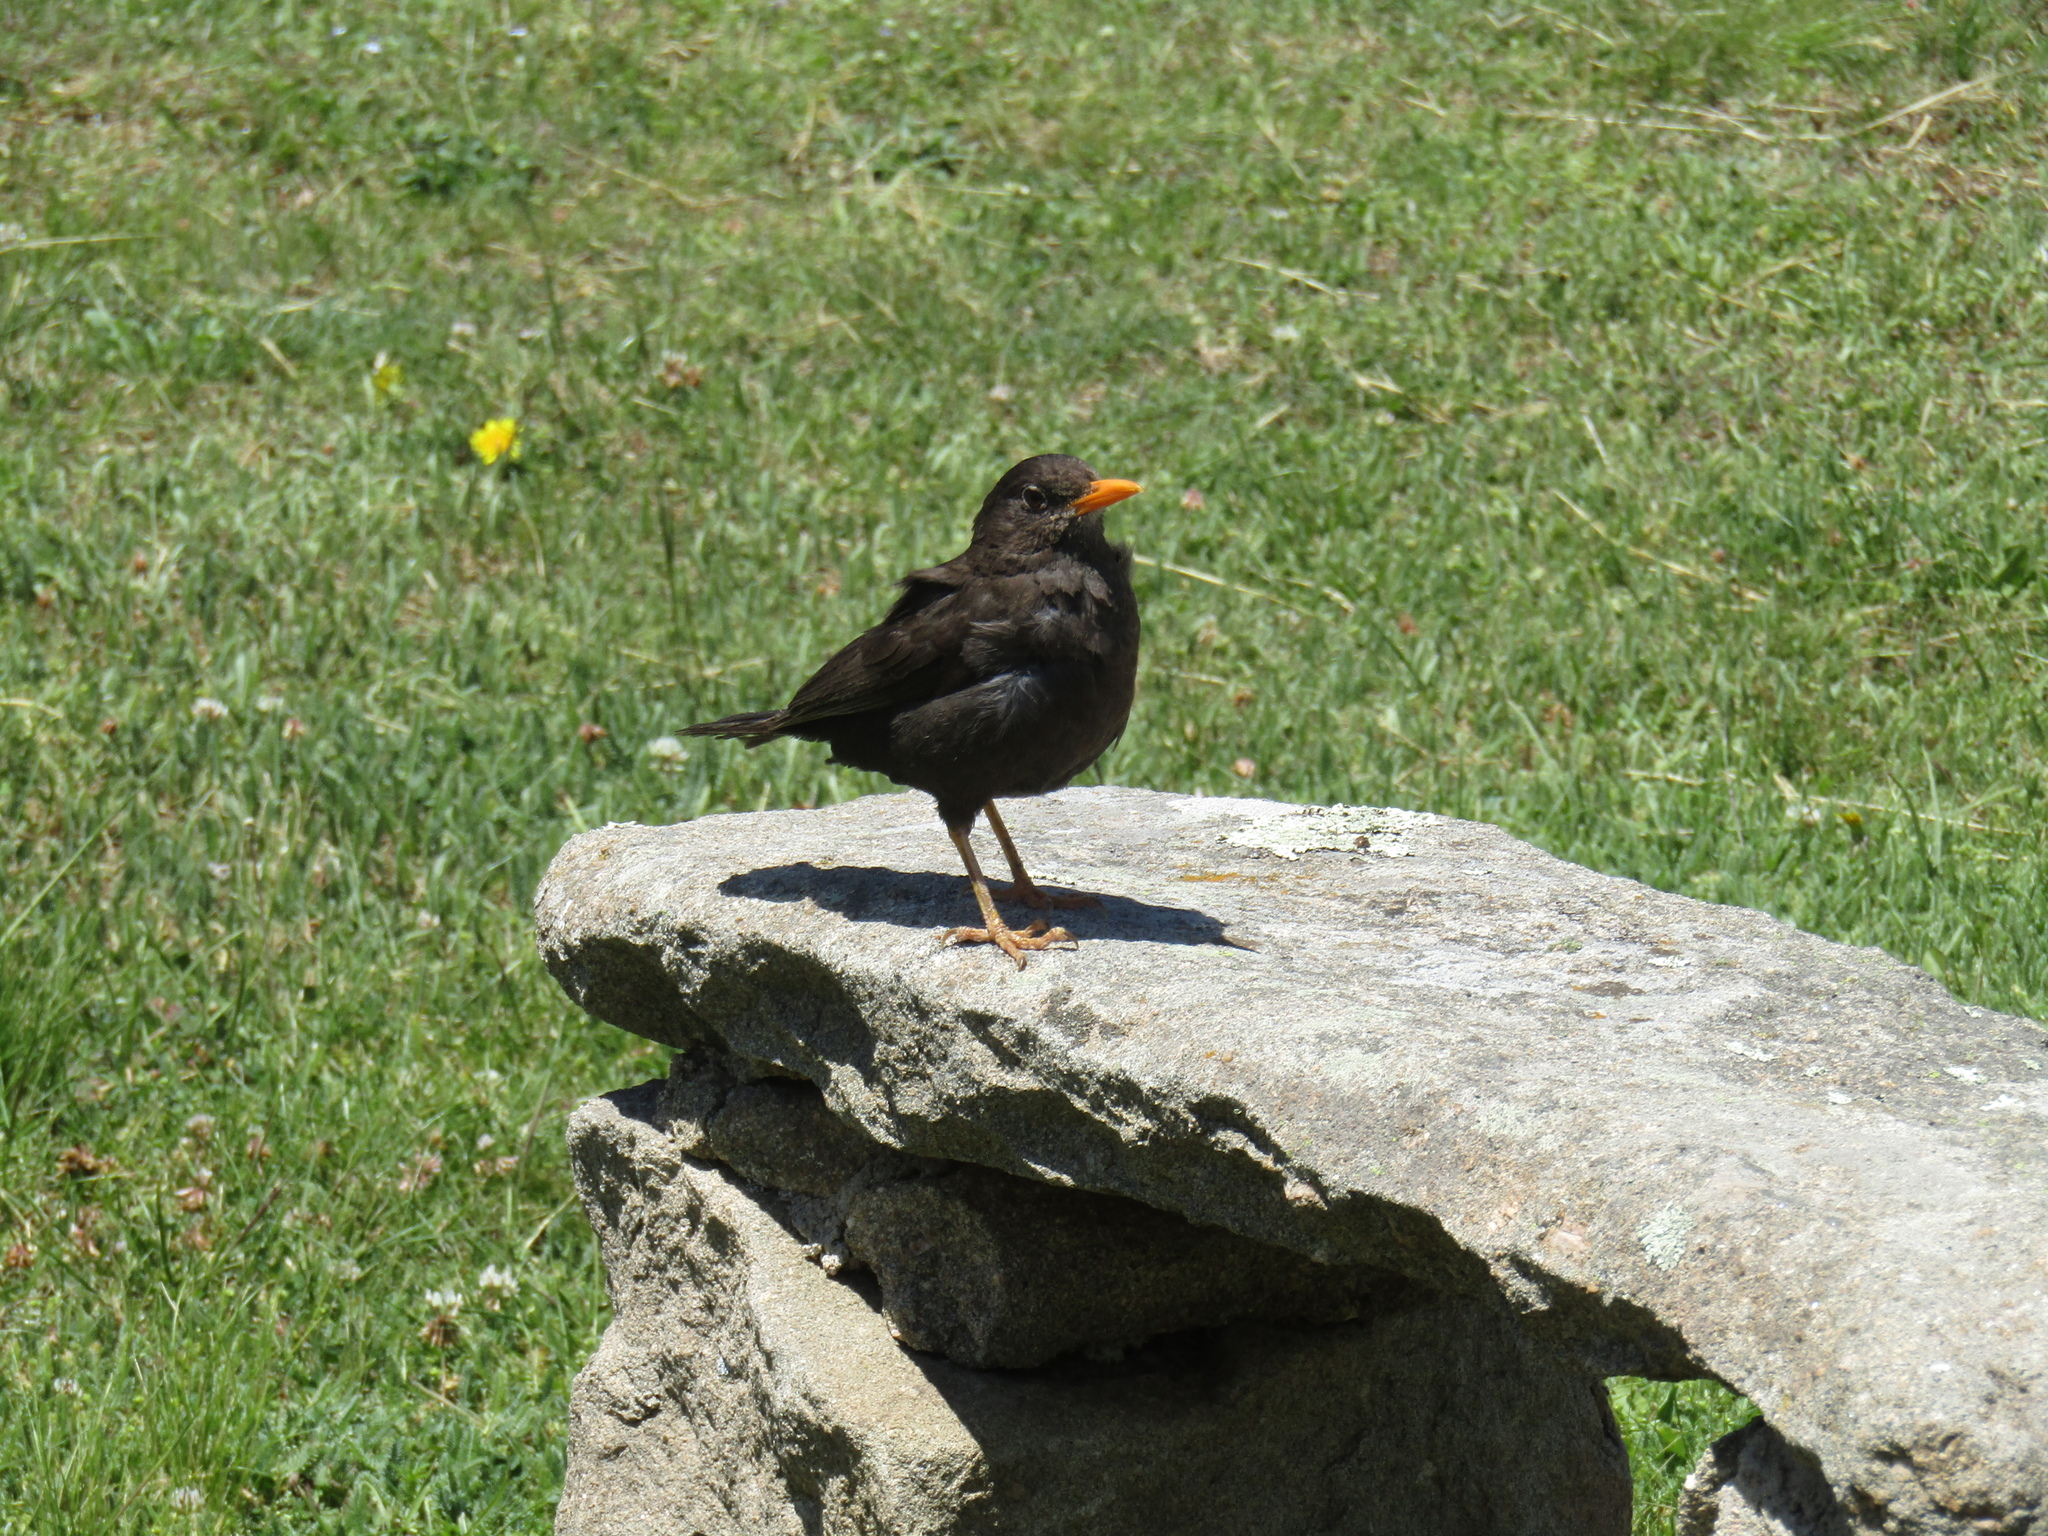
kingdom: Animalia
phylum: Chordata
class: Aves
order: Passeriformes
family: Turdidae
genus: Turdus
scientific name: Turdus chiguanco
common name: Chiguanco thrush
